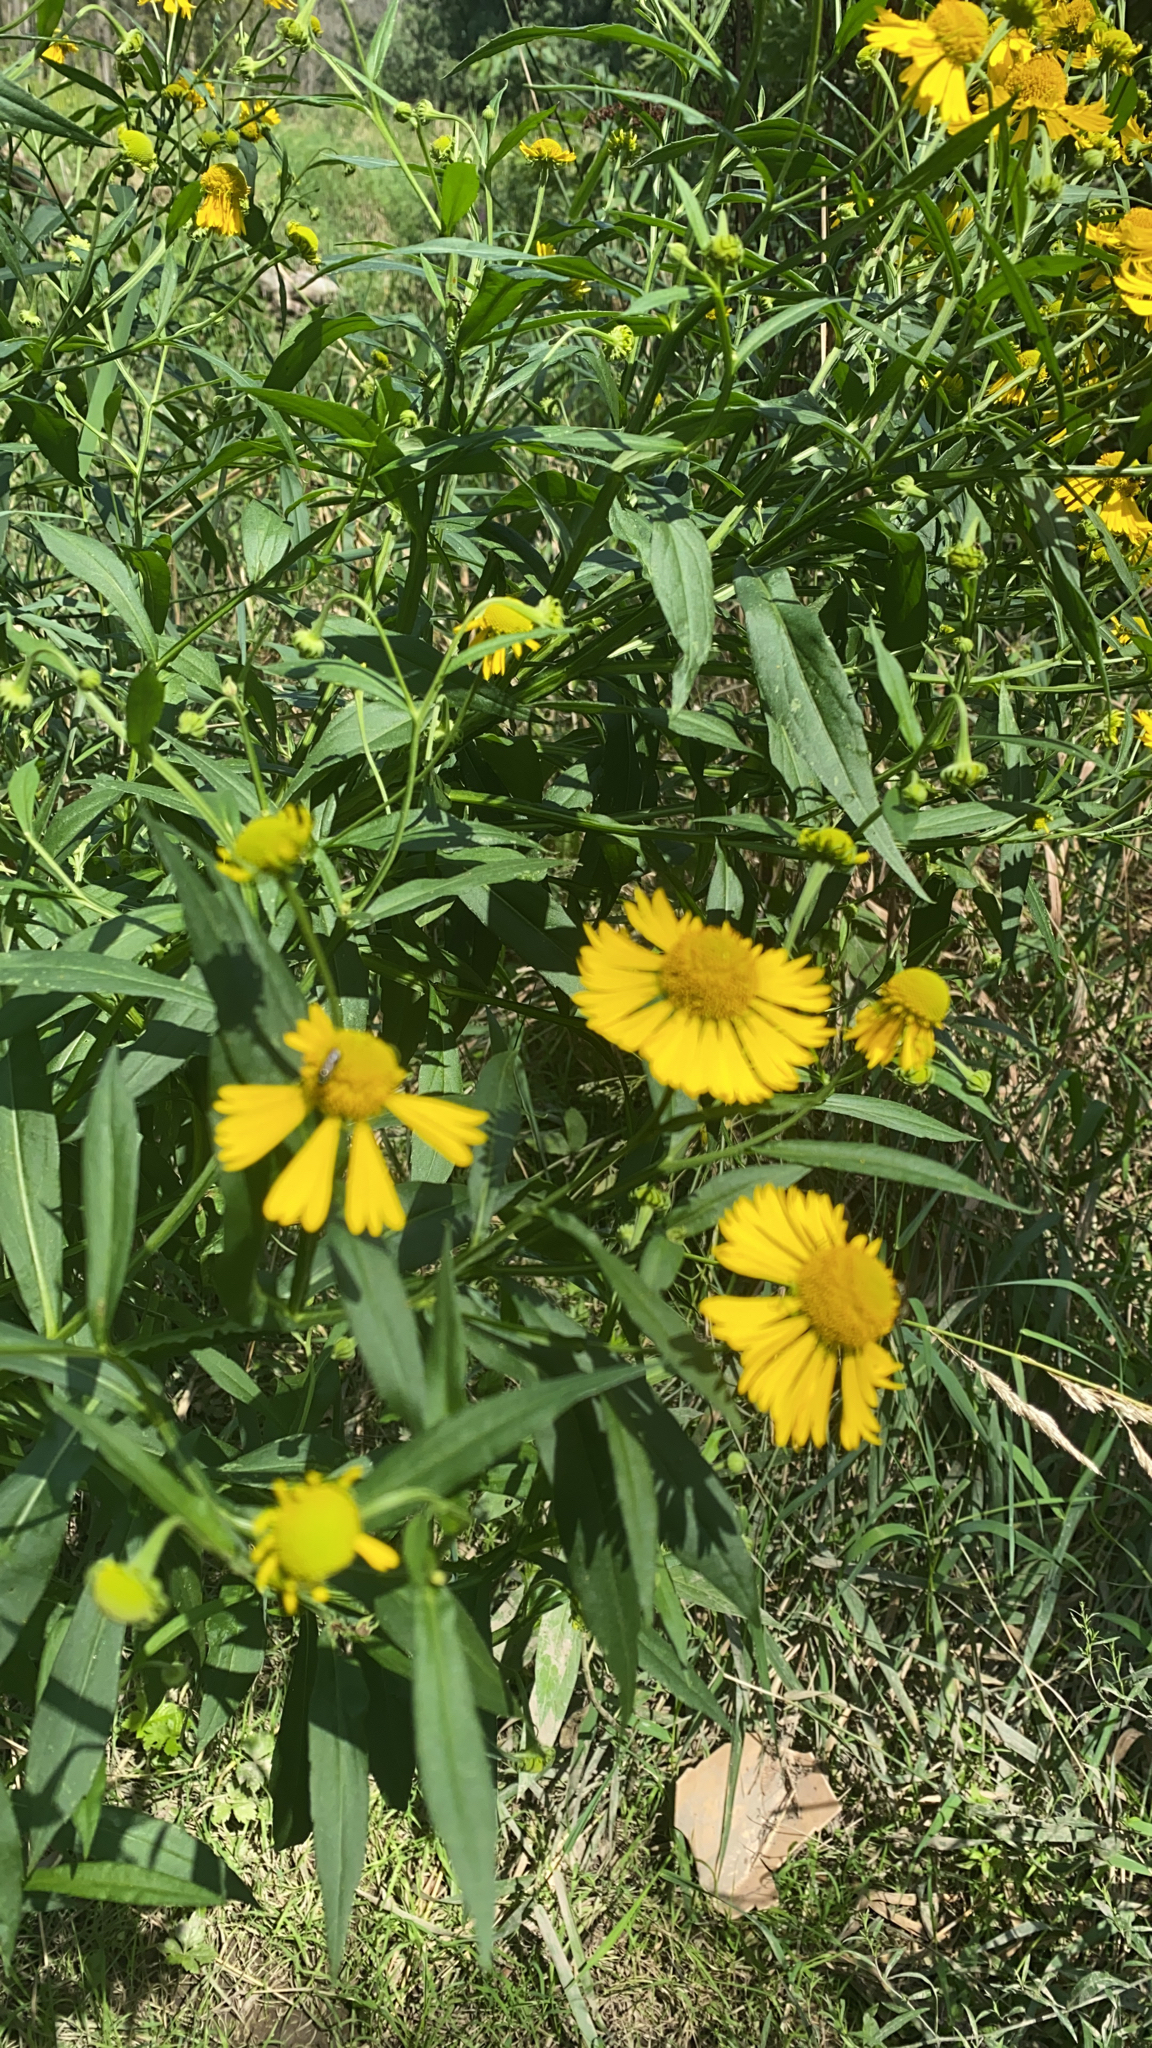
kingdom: Plantae
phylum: Tracheophyta
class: Magnoliopsida
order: Asterales
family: Asteraceae
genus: Helenium
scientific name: Helenium autumnale
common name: Sneezeweed
